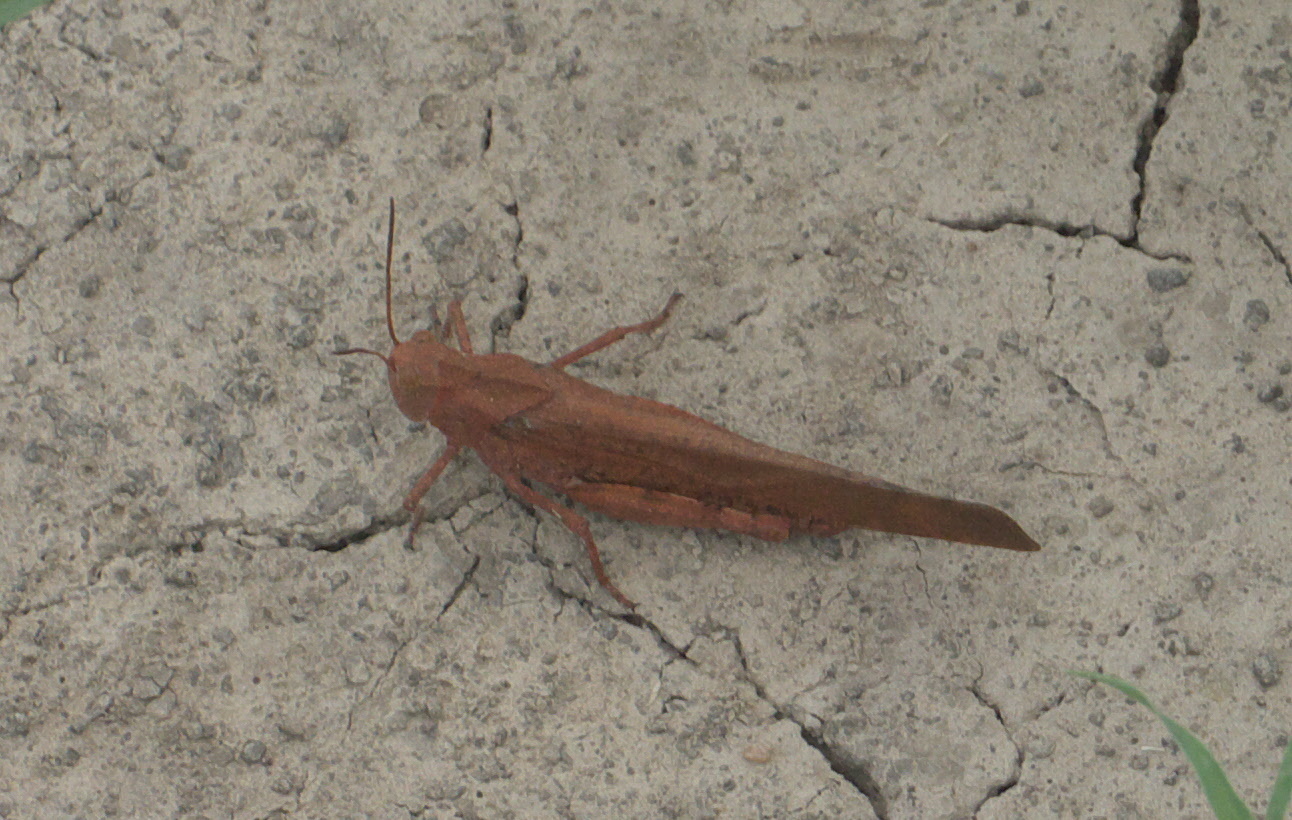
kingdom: Animalia
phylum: Arthropoda
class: Insecta
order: Orthoptera
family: Acrididae
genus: Dissosteira
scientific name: Dissosteira carolina
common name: Carolina grasshopper
